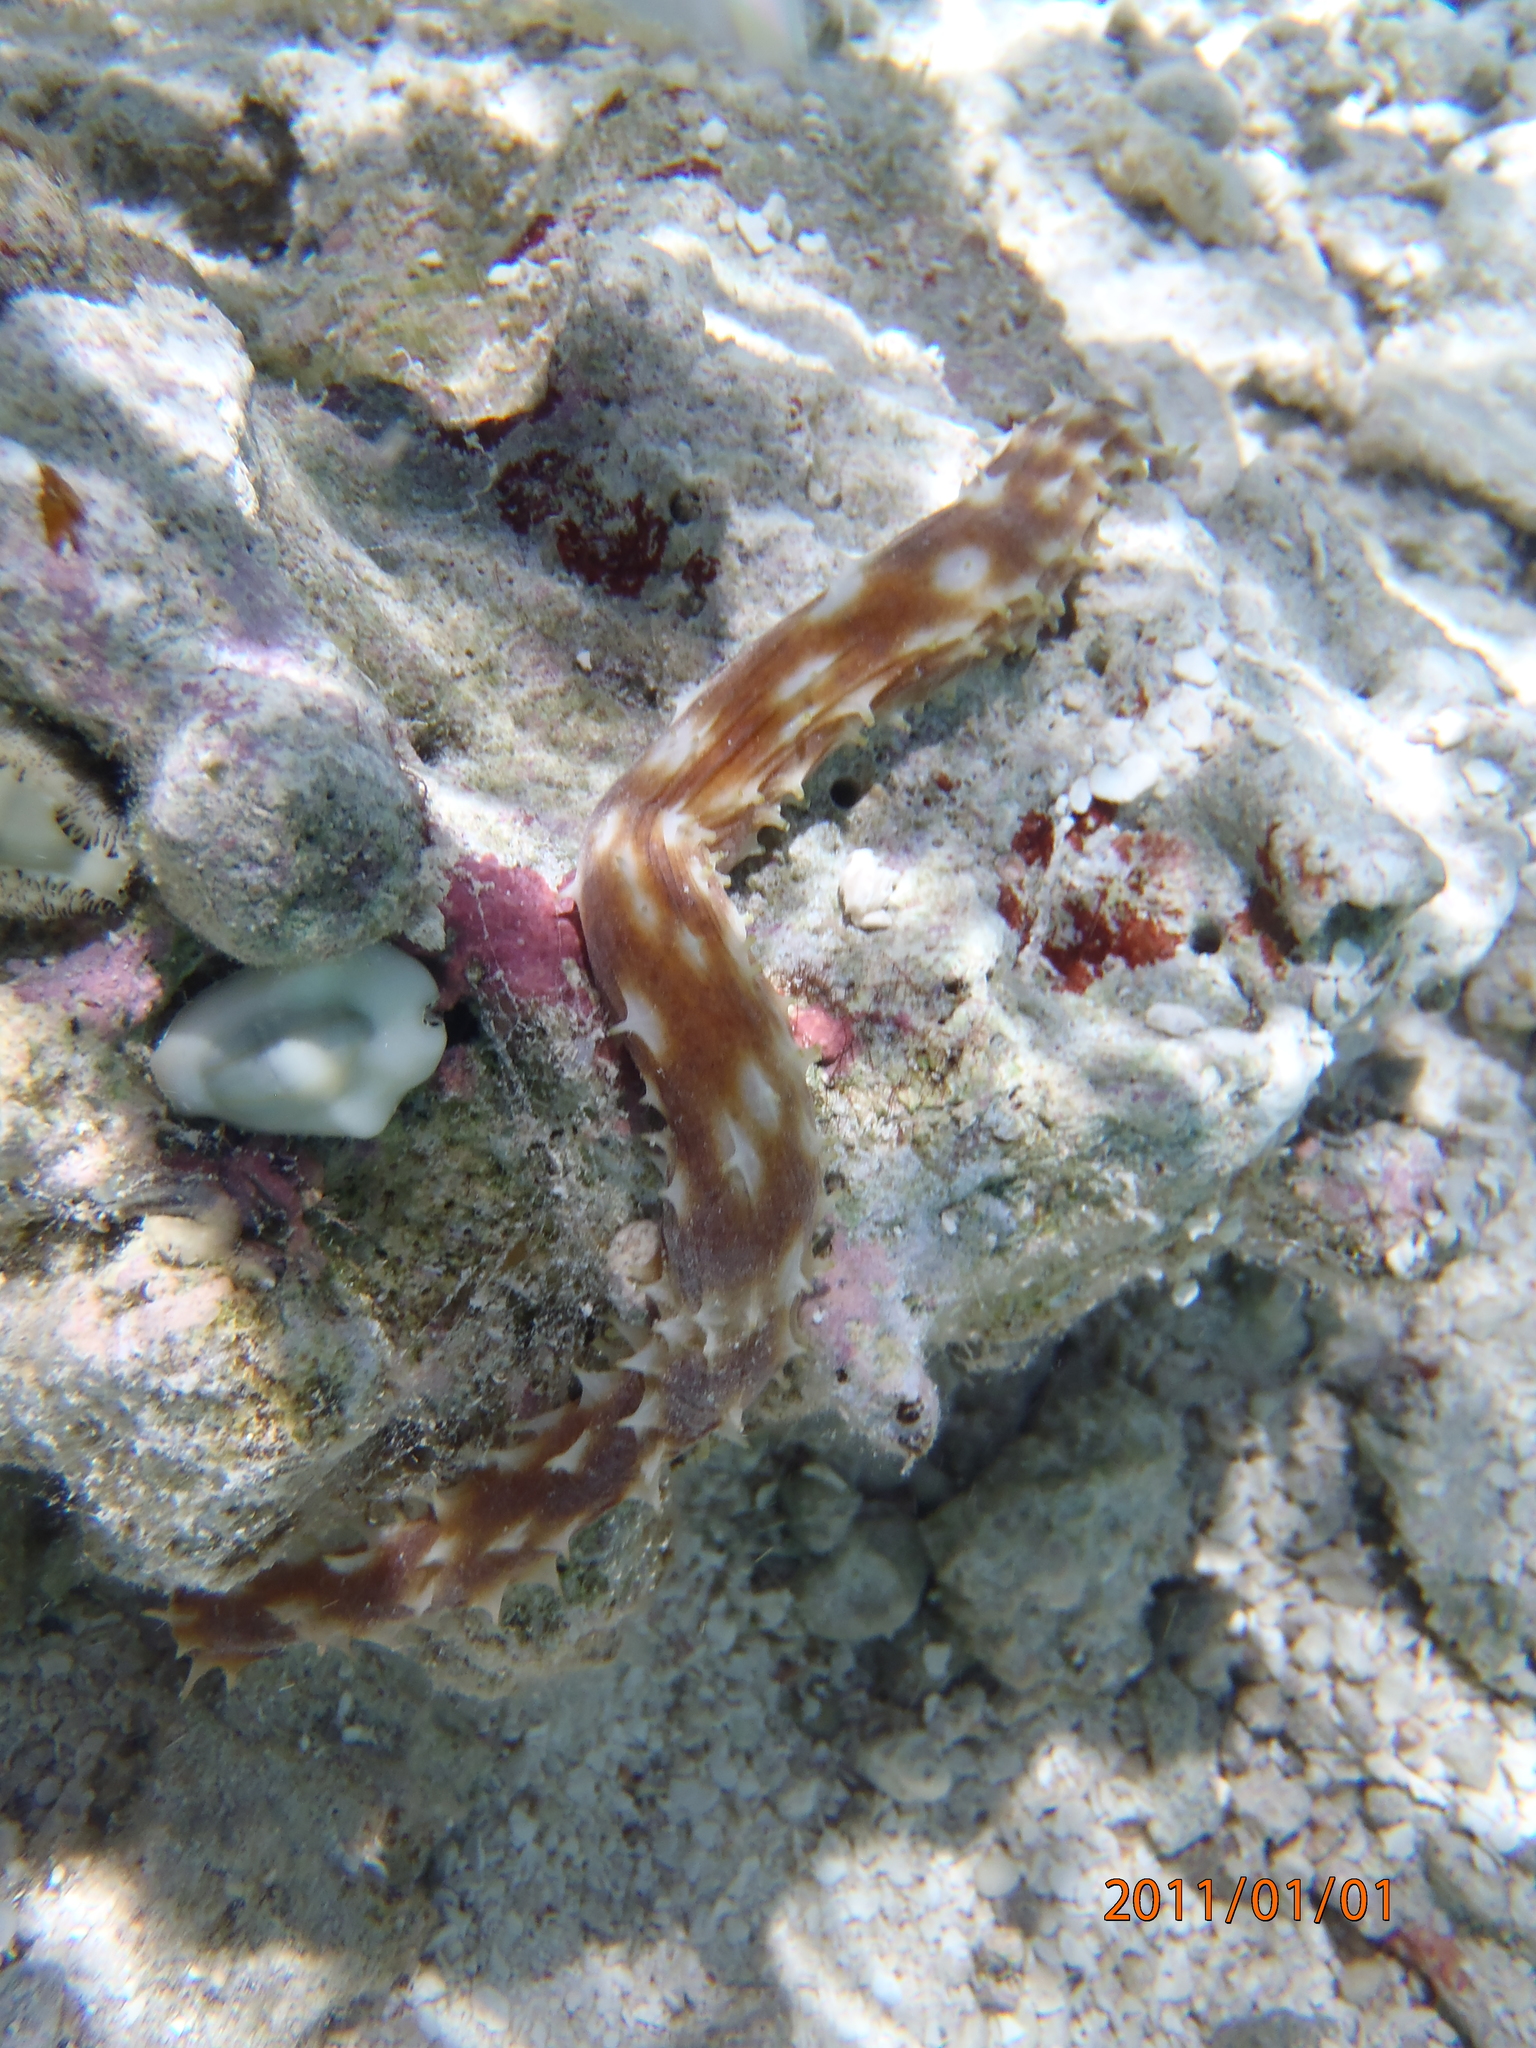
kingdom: Animalia
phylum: Echinodermata
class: Holothuroidea
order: Holothuriida
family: Holothuriidae
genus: Holothuria
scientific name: Holothuria hilla
